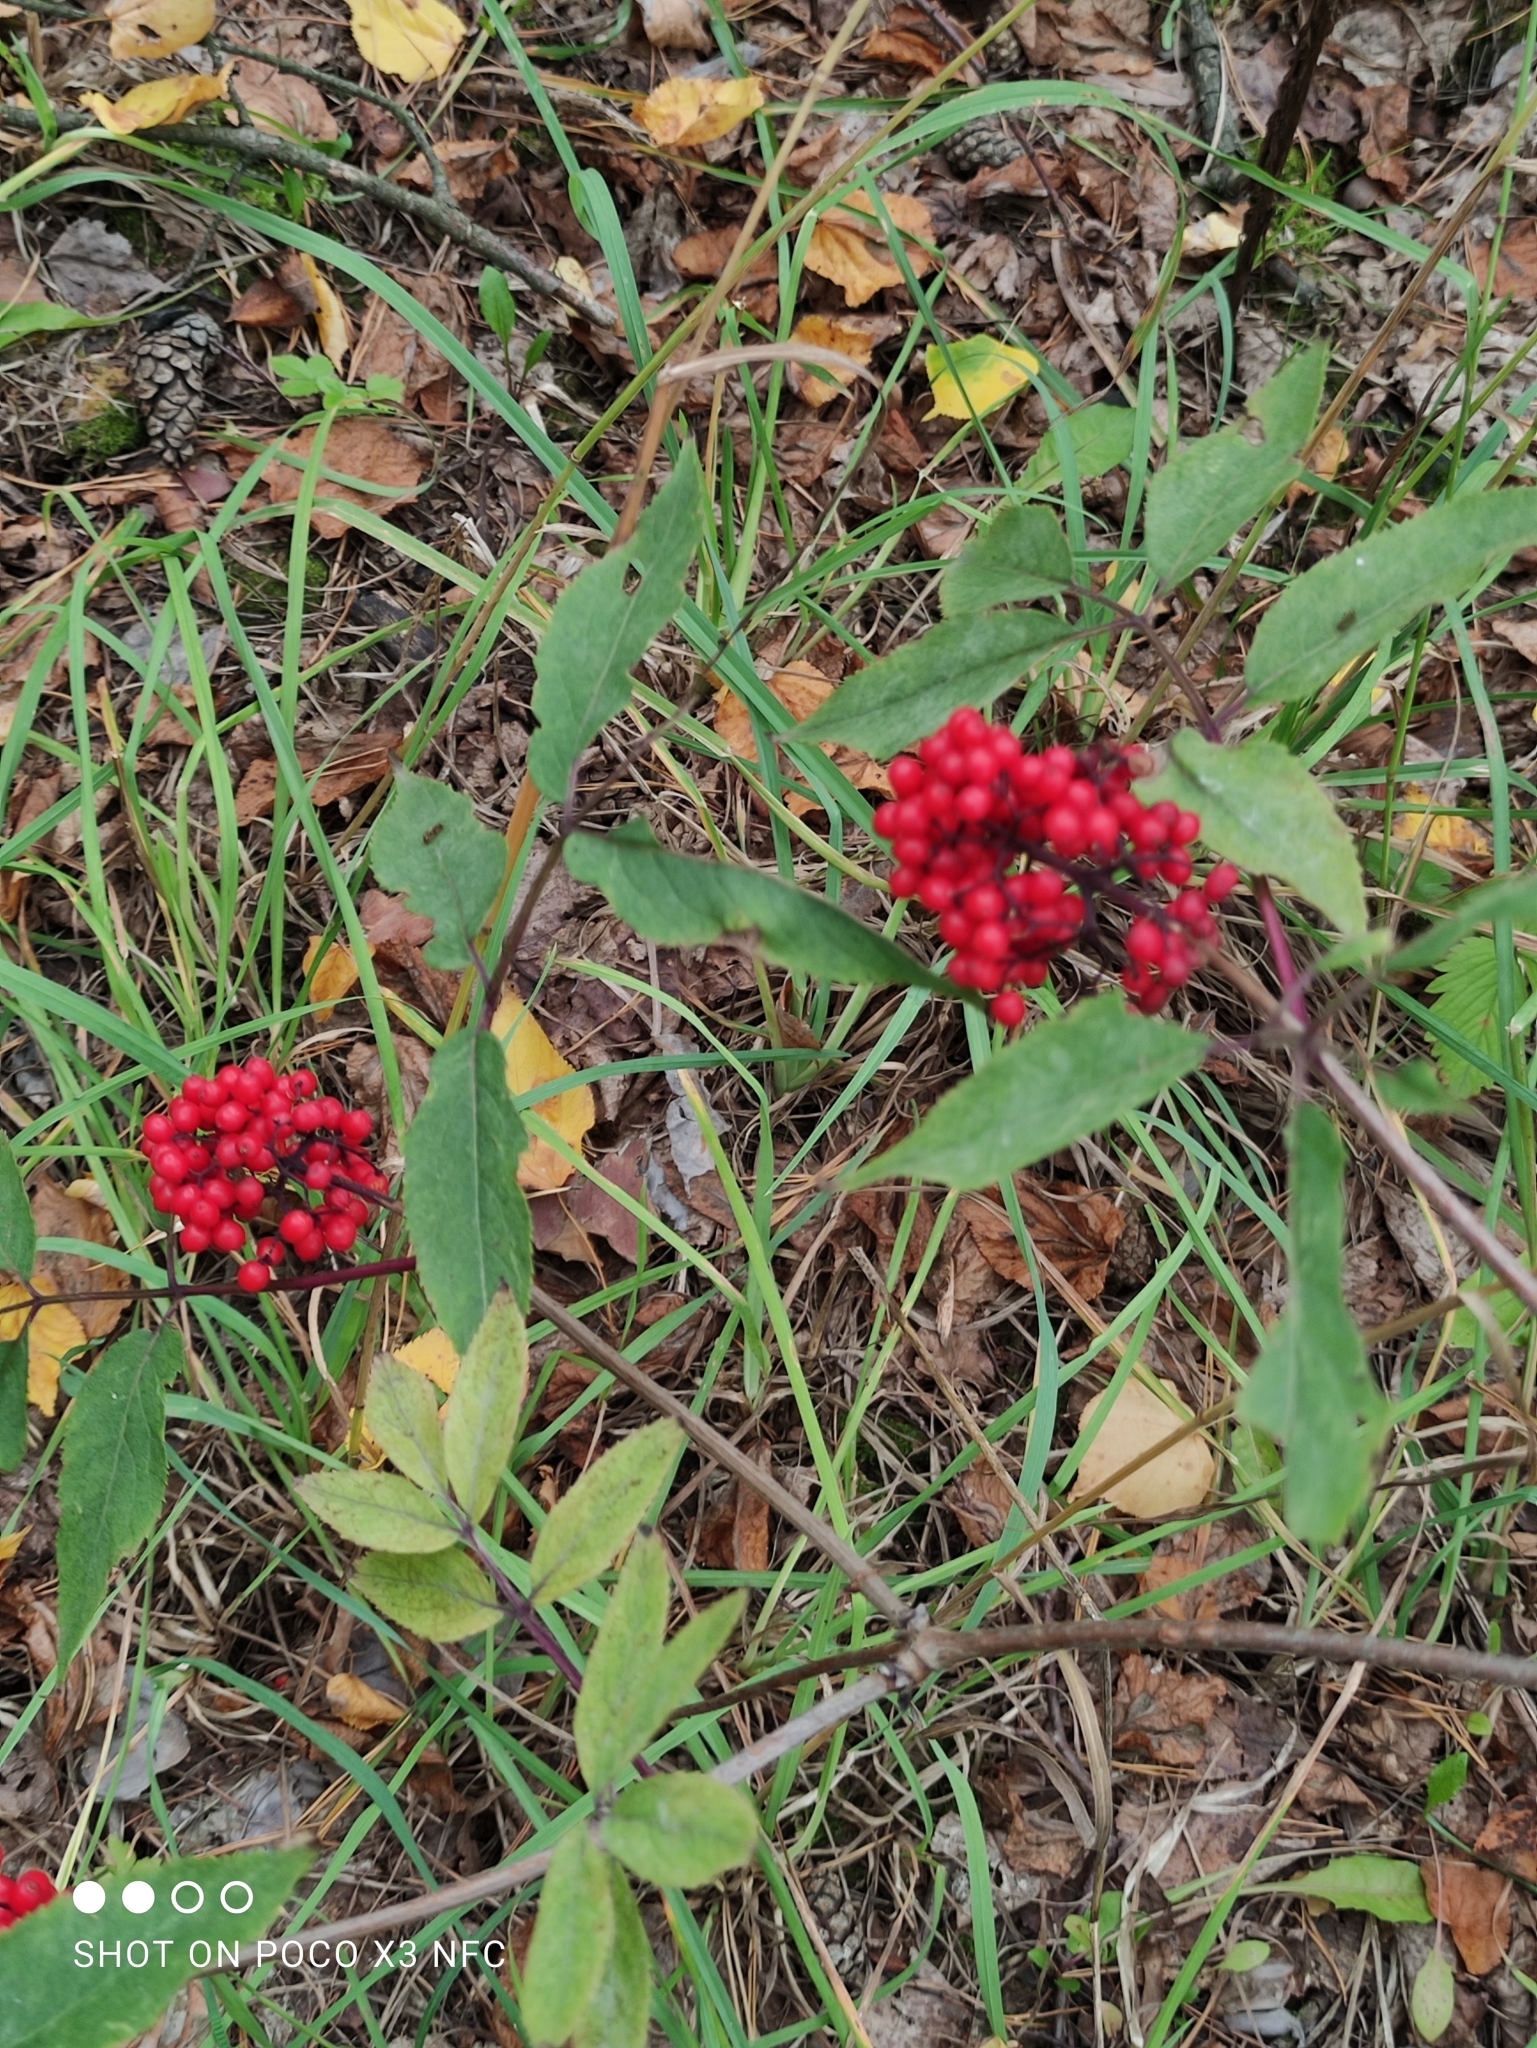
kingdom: Plantae
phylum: Tracheophyta
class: Magnoliopsida
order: Dipsacales
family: Viburnaceae
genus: Sambucus
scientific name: Sambucus racemosa
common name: Red-berried elder
